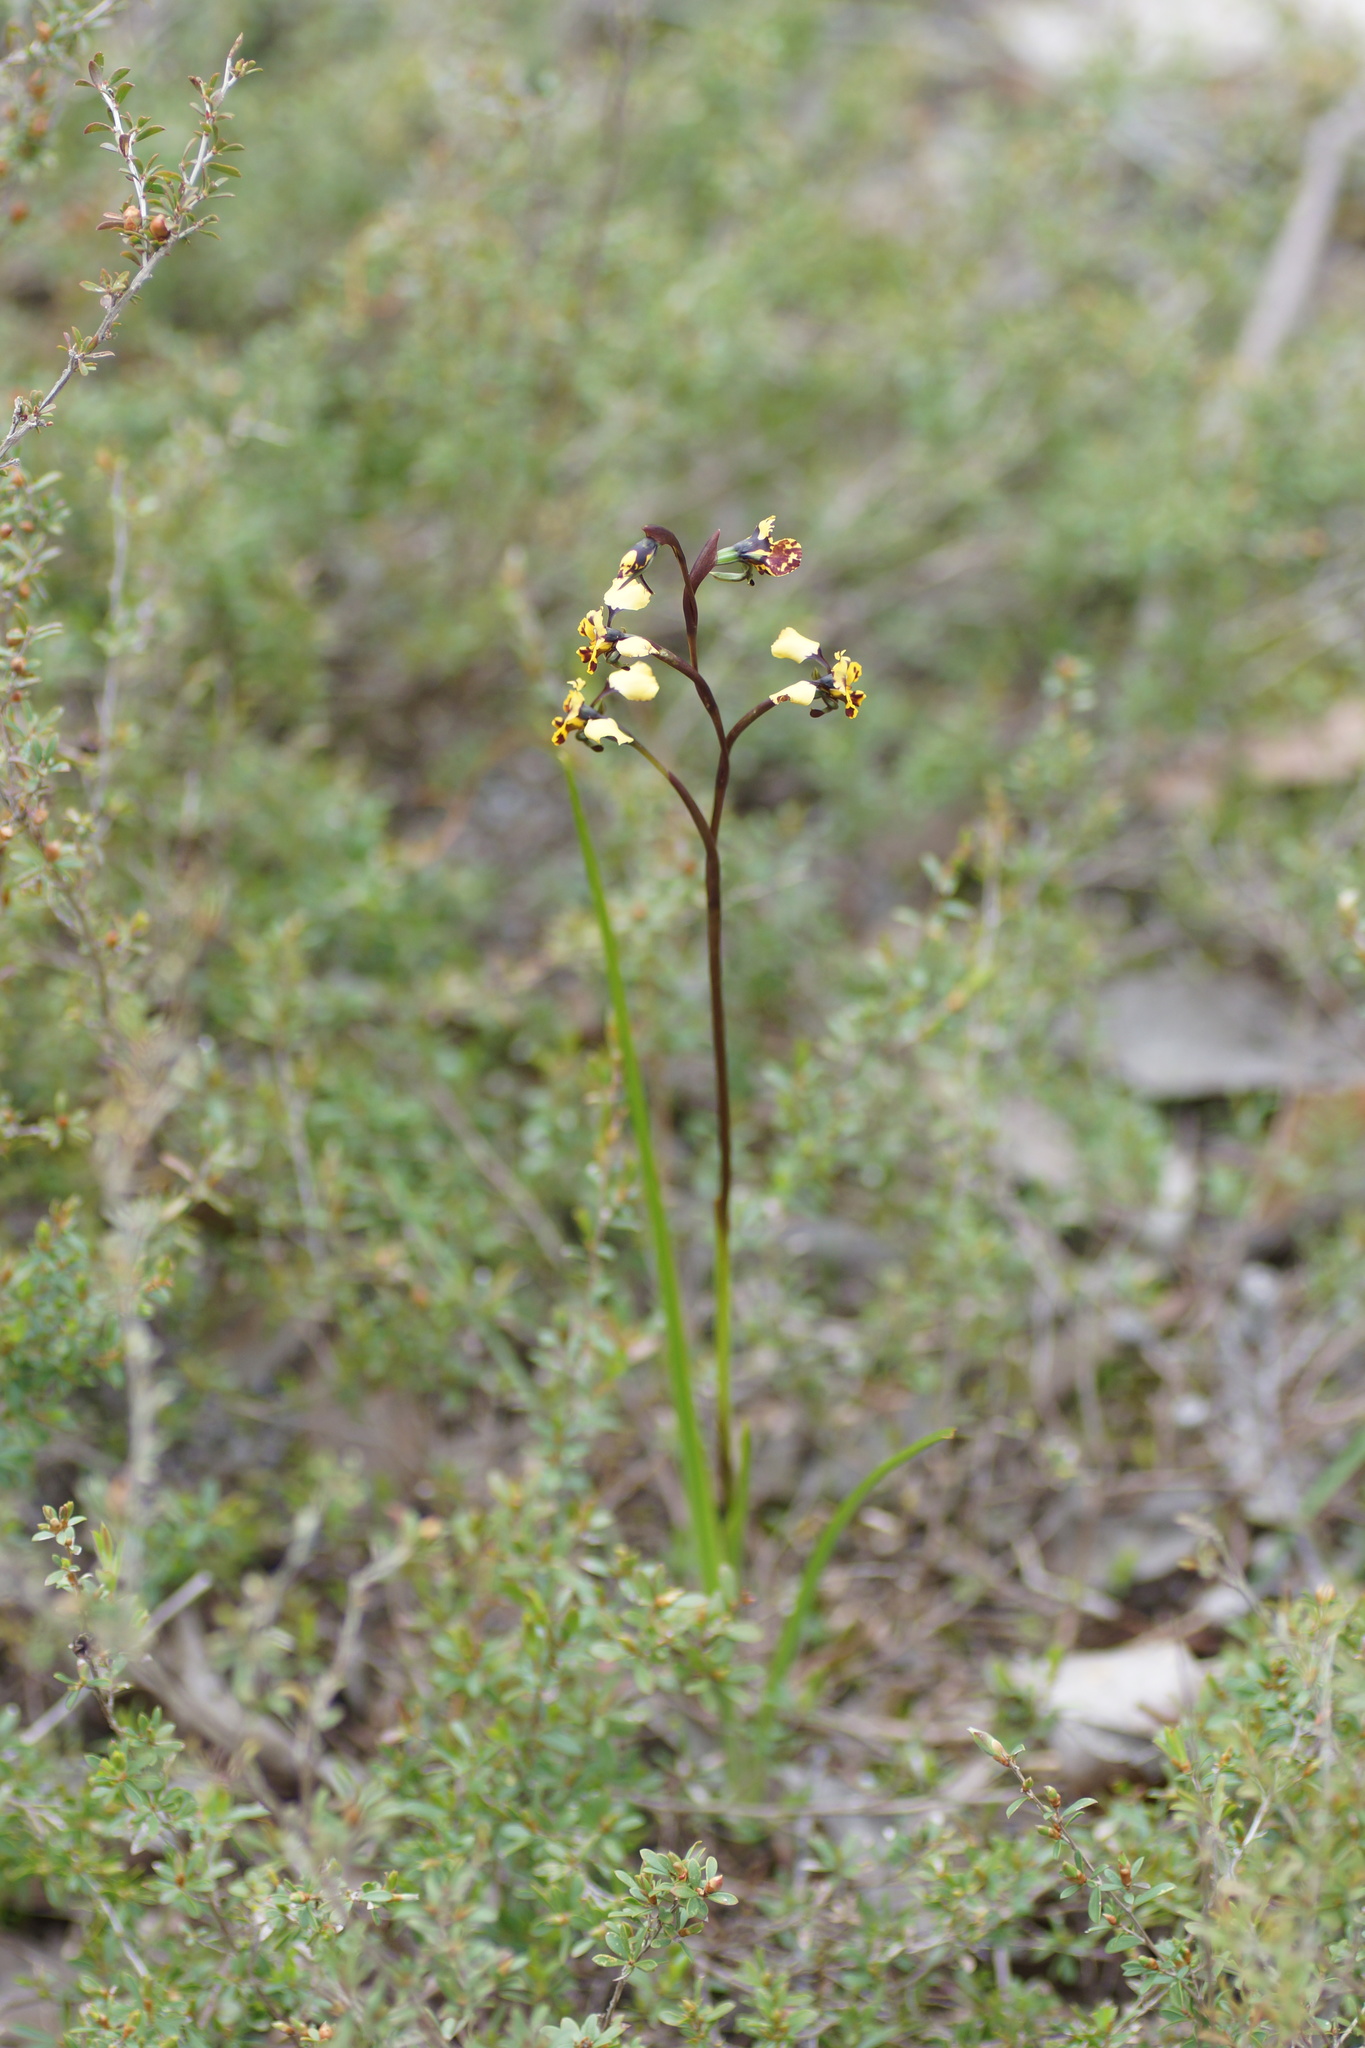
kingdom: Plantae
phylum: Tracheophyta
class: Liliopsida
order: Asparagales
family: Orchidaceae
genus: Diuris
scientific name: Diuris pardina
